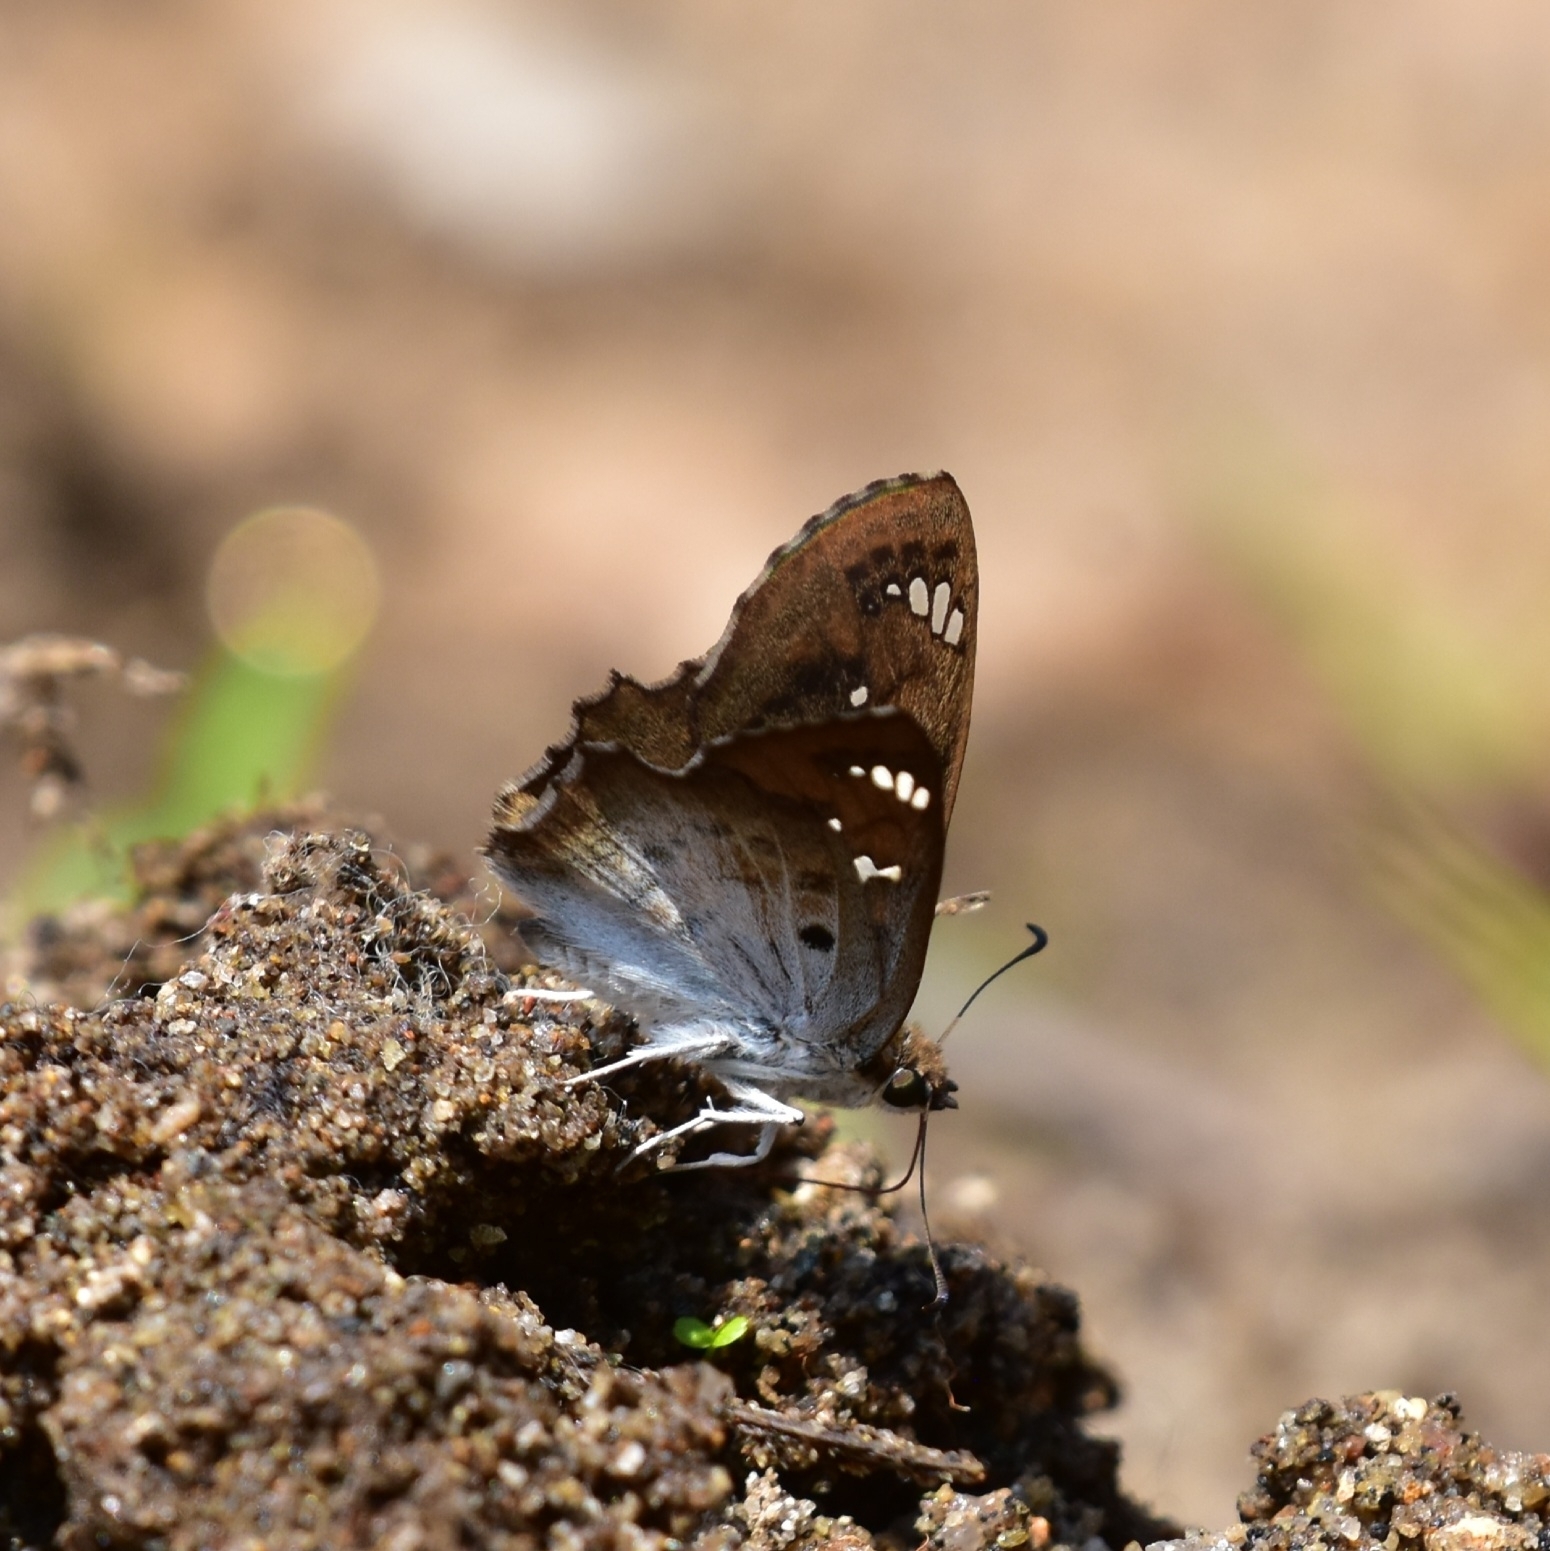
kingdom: Animalia
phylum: Arthropoda
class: Insecta
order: Lepidoptera
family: Hesperiidae
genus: Caprona
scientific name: Caprona ransonnettii
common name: Golden angle
